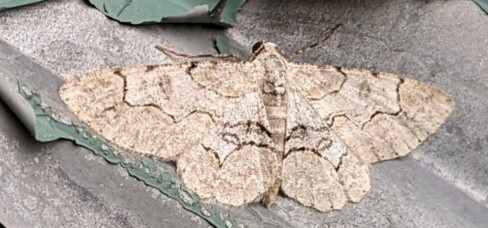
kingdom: Animalia
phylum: Arthropoda
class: Insecta
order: Lepidoptera
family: Geometridae
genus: Iridopsis
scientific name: Iridopsis larvaria
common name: Bent-line gray
